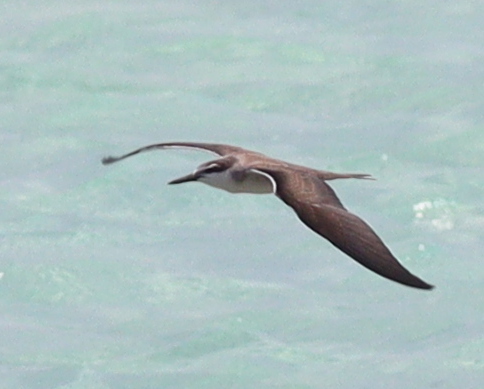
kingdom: Animalia
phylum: Chordata
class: Aves
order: Charadriiformes
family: Laridae
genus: Onychoprion
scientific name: Onychoprion anaethetus
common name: Bridled tern
